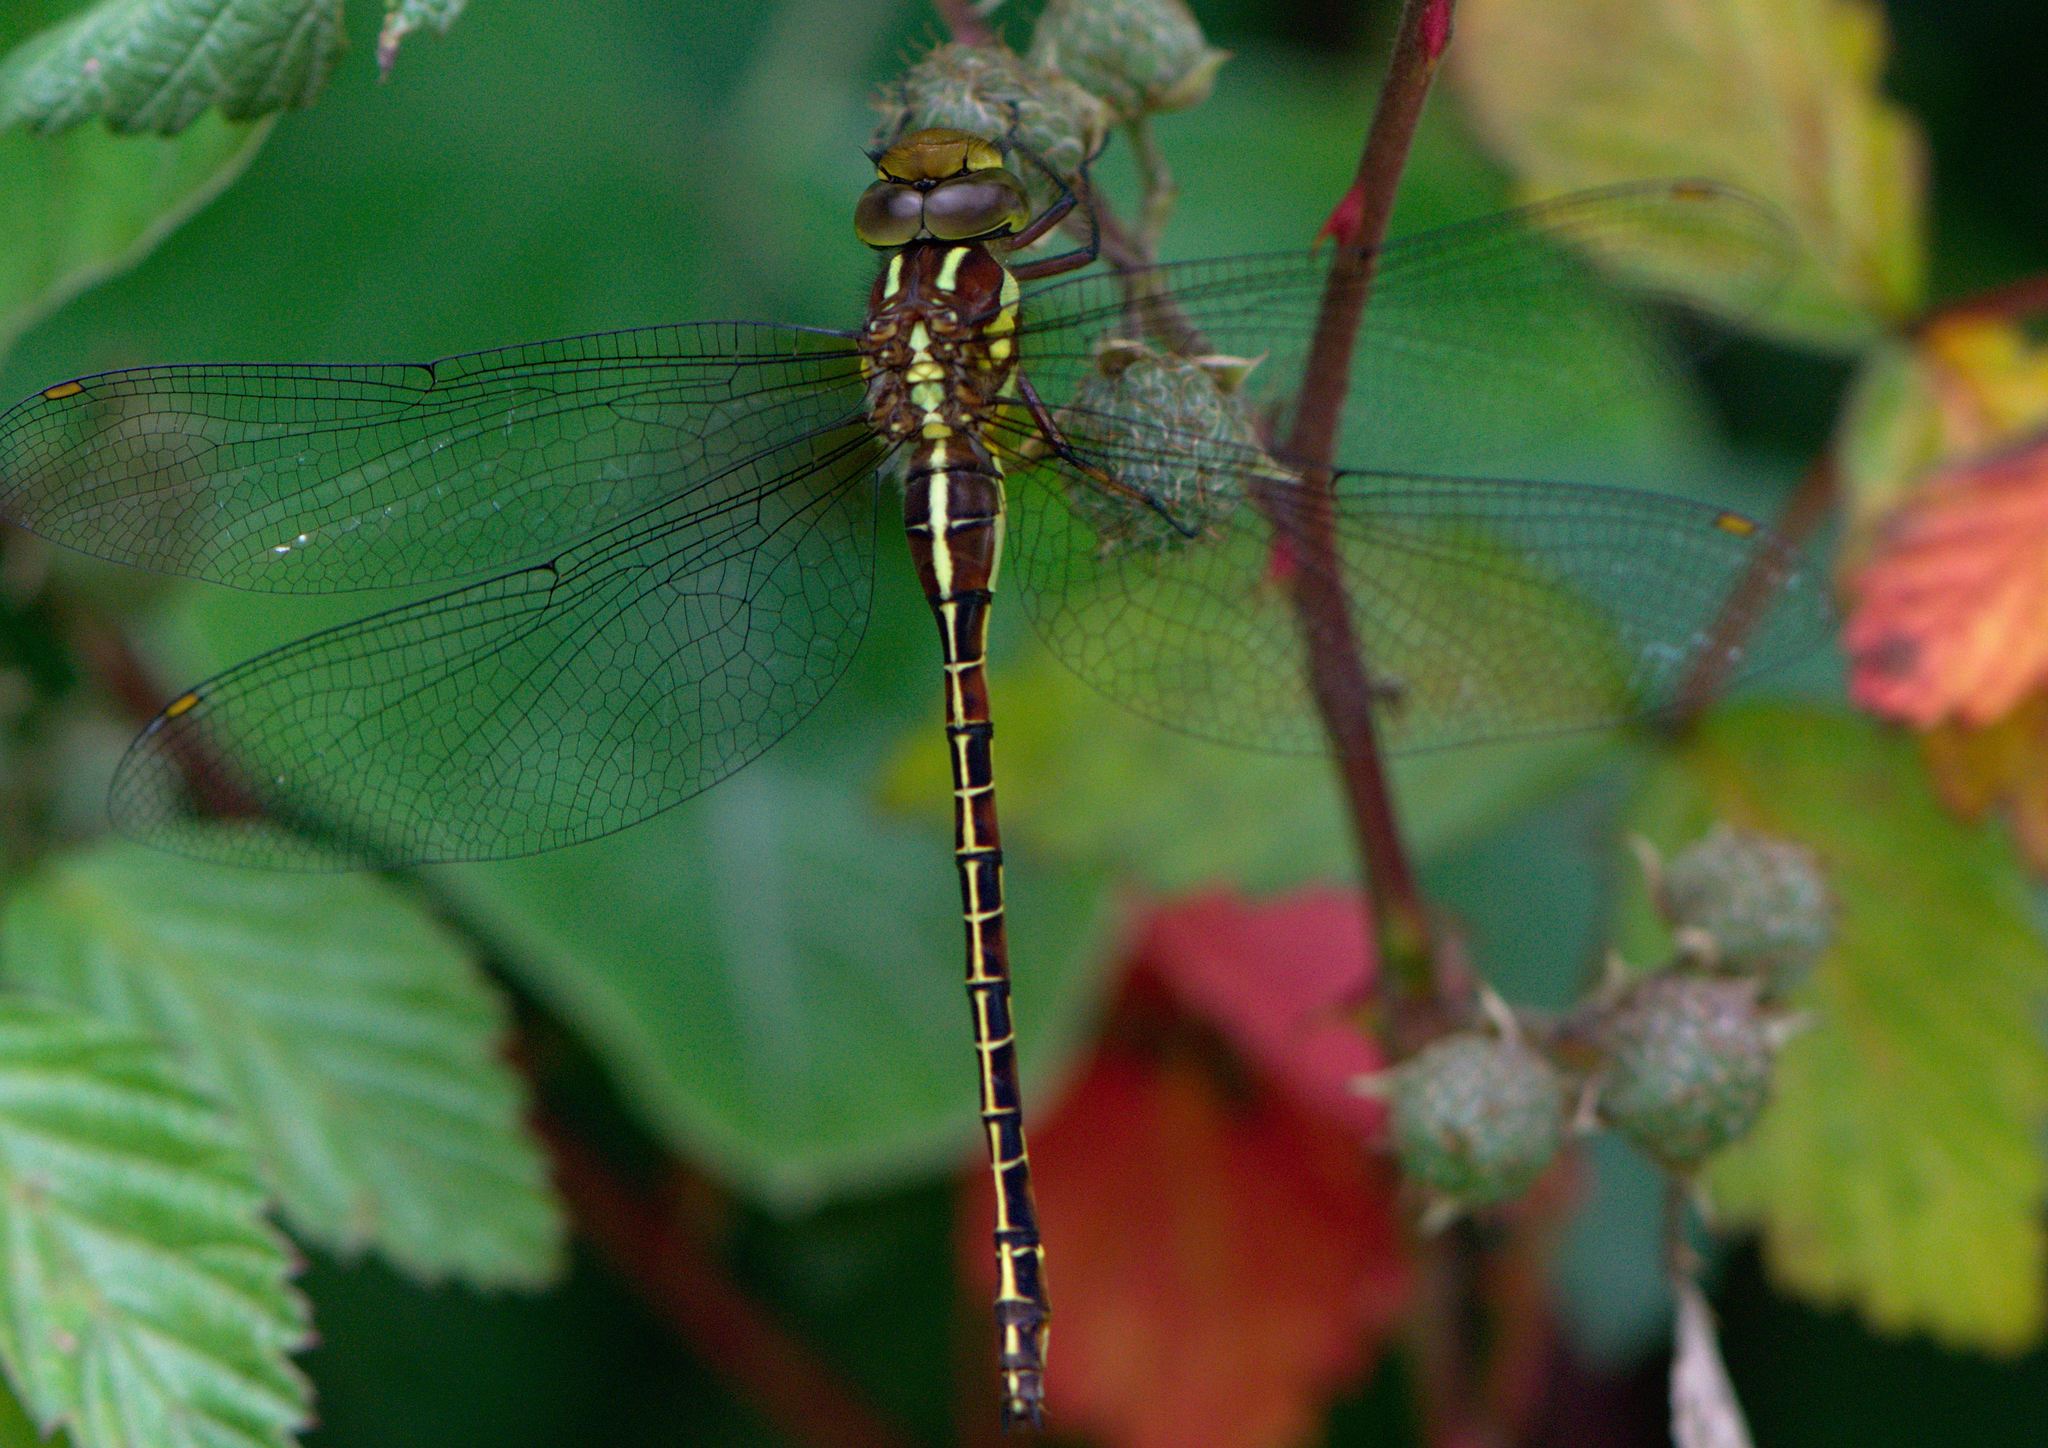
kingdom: Animalia
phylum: Arthropoda
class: Insecta
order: Odonata
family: Aeshnidae
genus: Cephalaeschna
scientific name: Cephalaeschna orbifrons
